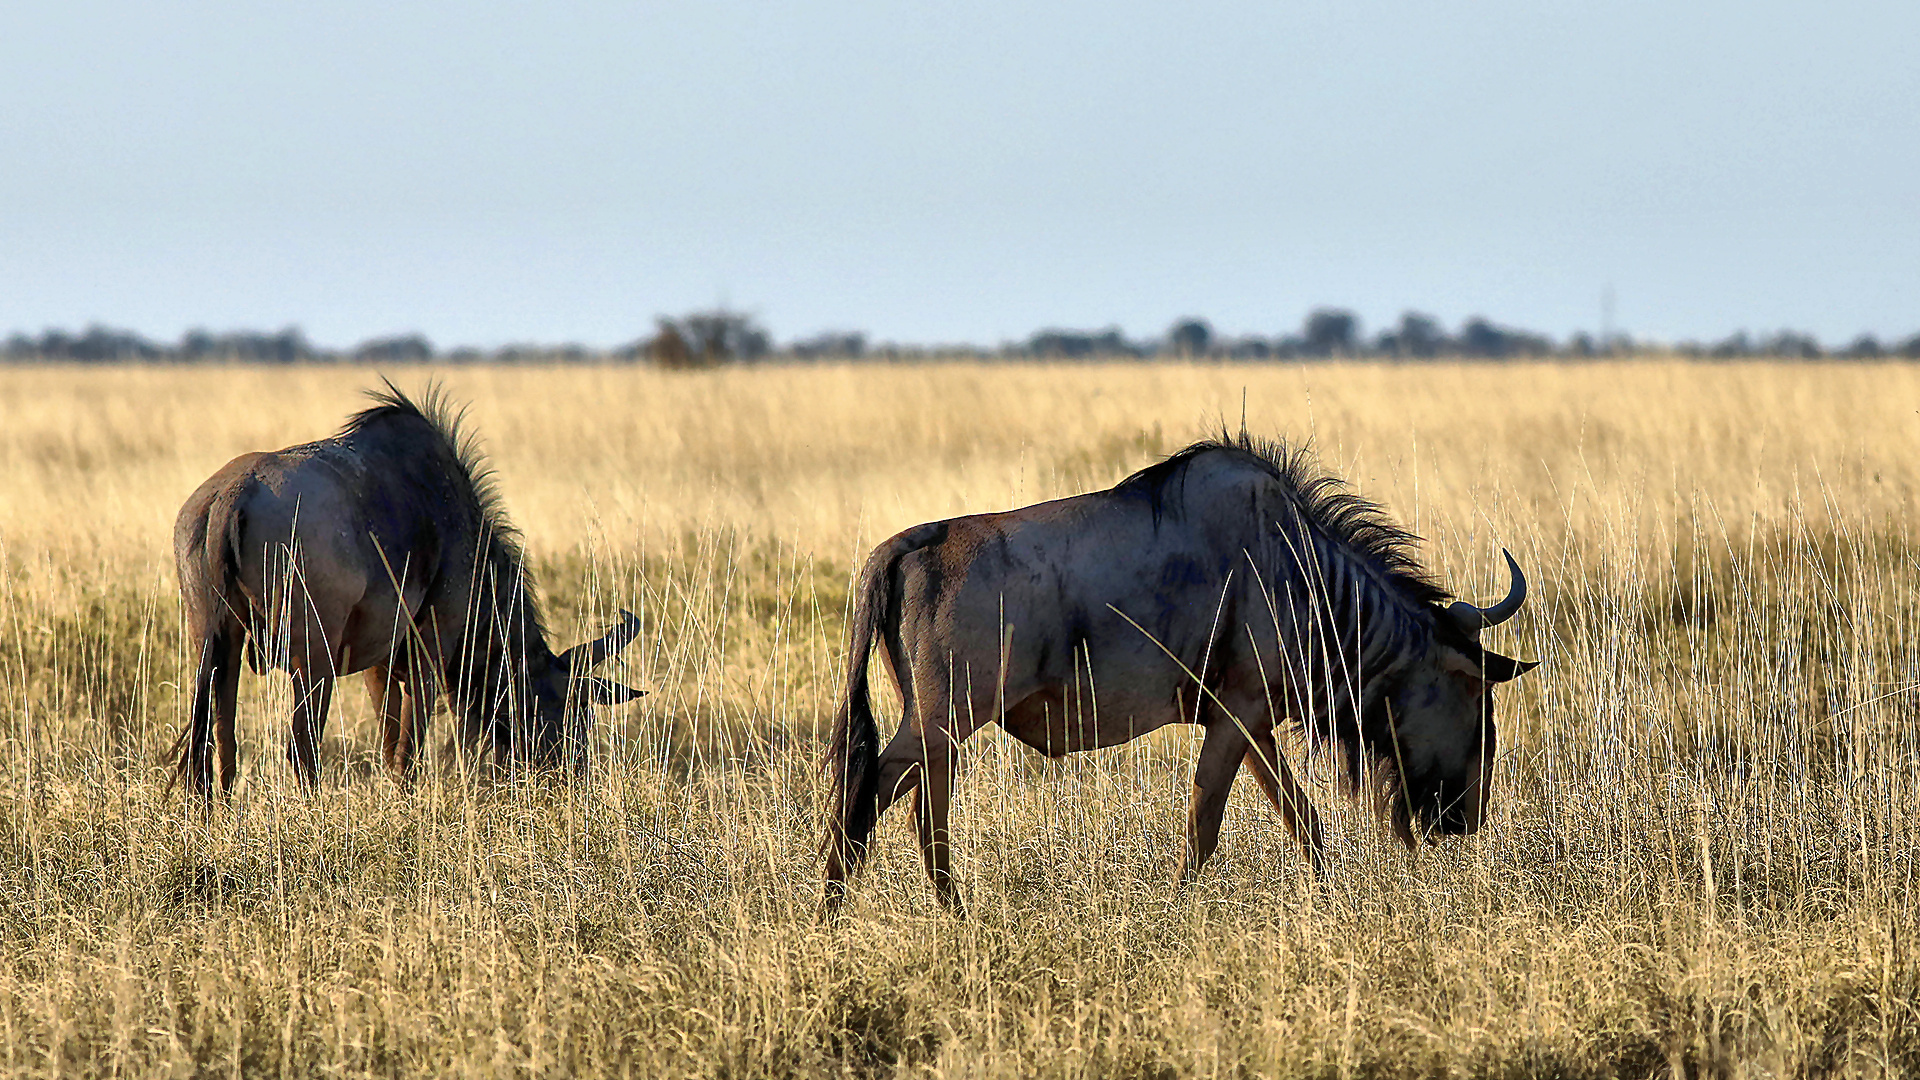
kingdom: Animalia
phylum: Chordata
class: Mammalia
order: Artiodactyla
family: Bovidae
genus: Connochaetes
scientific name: Connochaetes taurinus
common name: Blue wildebeest
